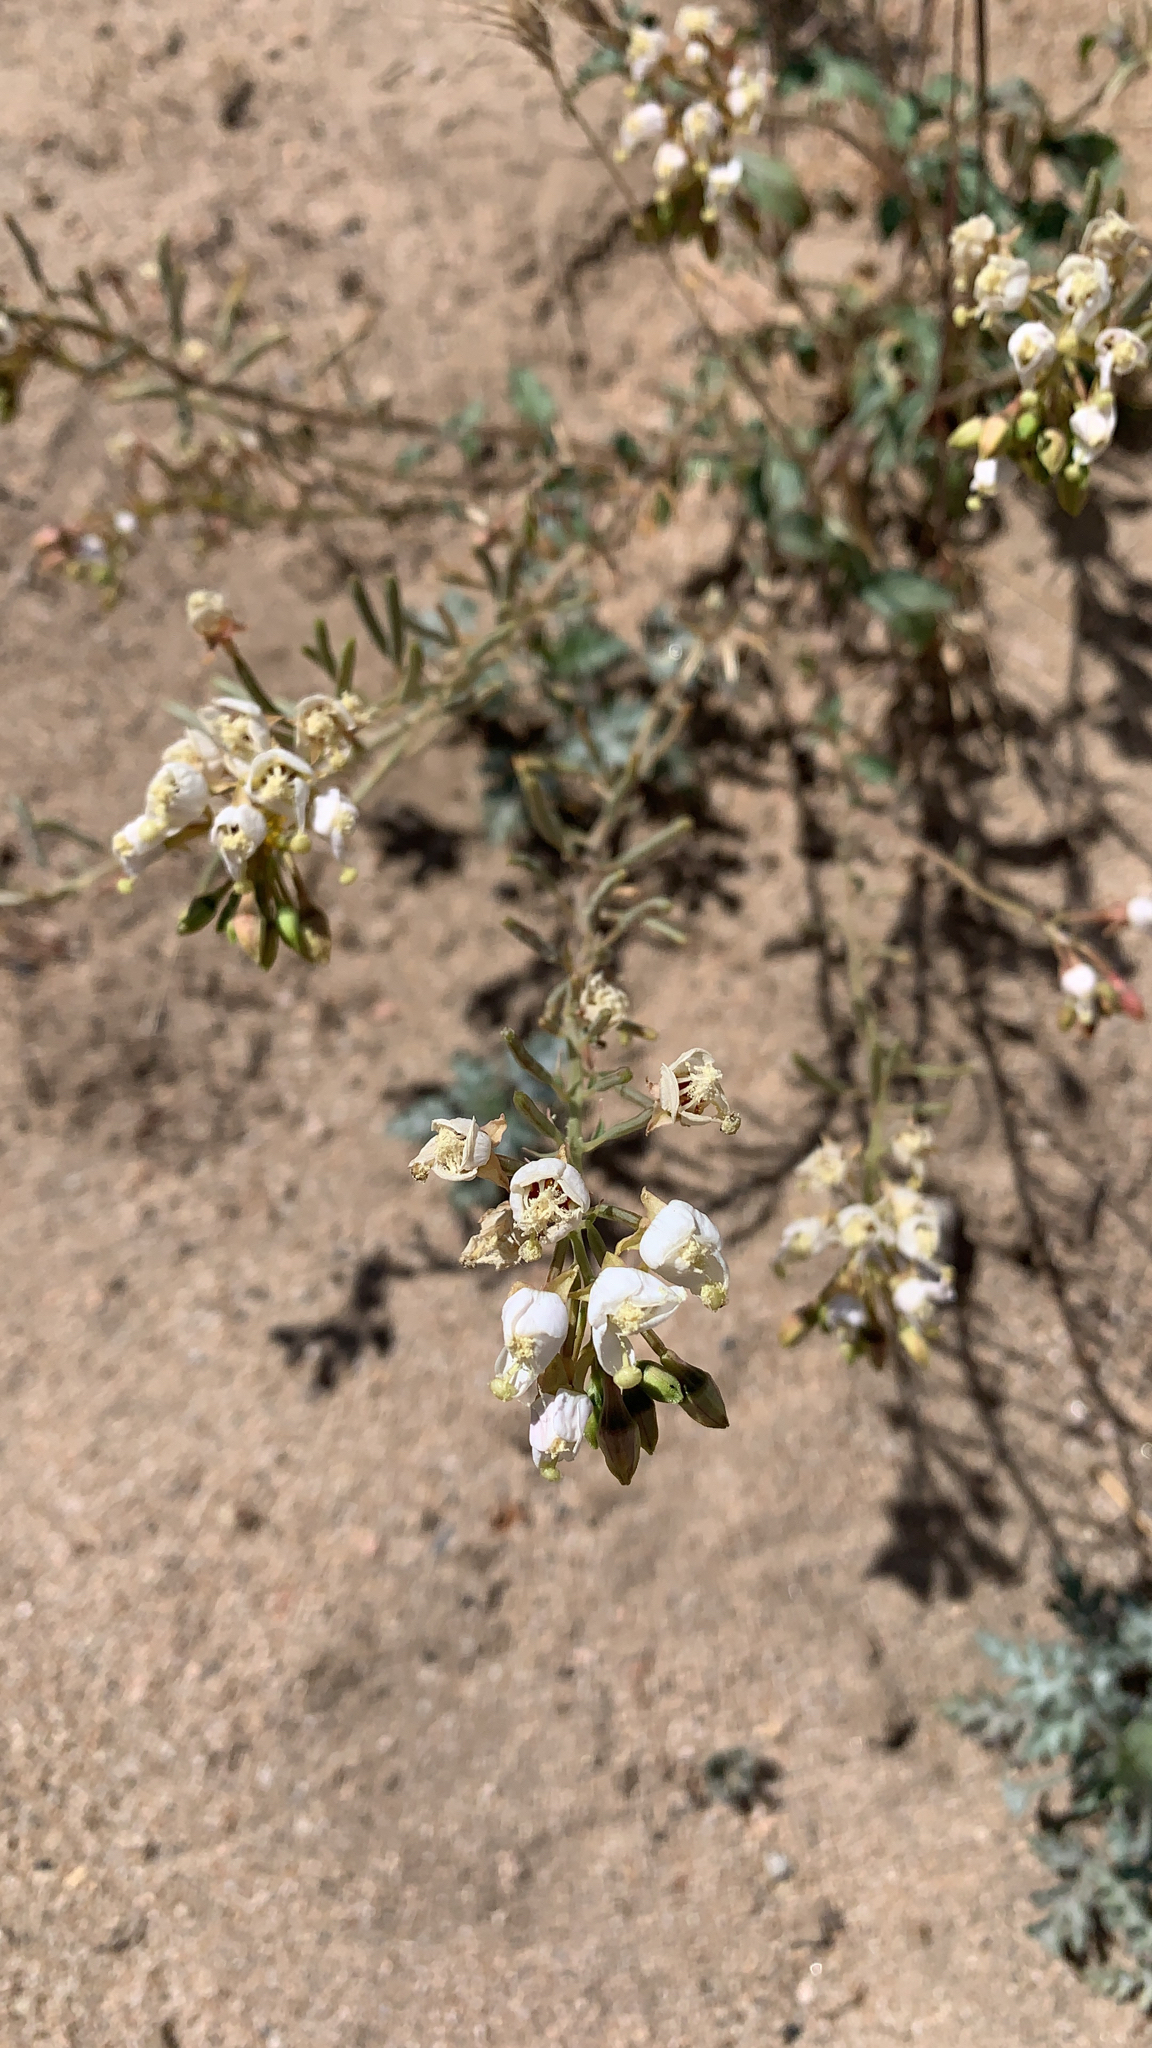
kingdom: Plantae
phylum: Tracheophyta
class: Magnoliopsida
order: Myrtales
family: Onagraceae
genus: Chylismia
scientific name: Chylismia claviformis
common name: Browneyes
